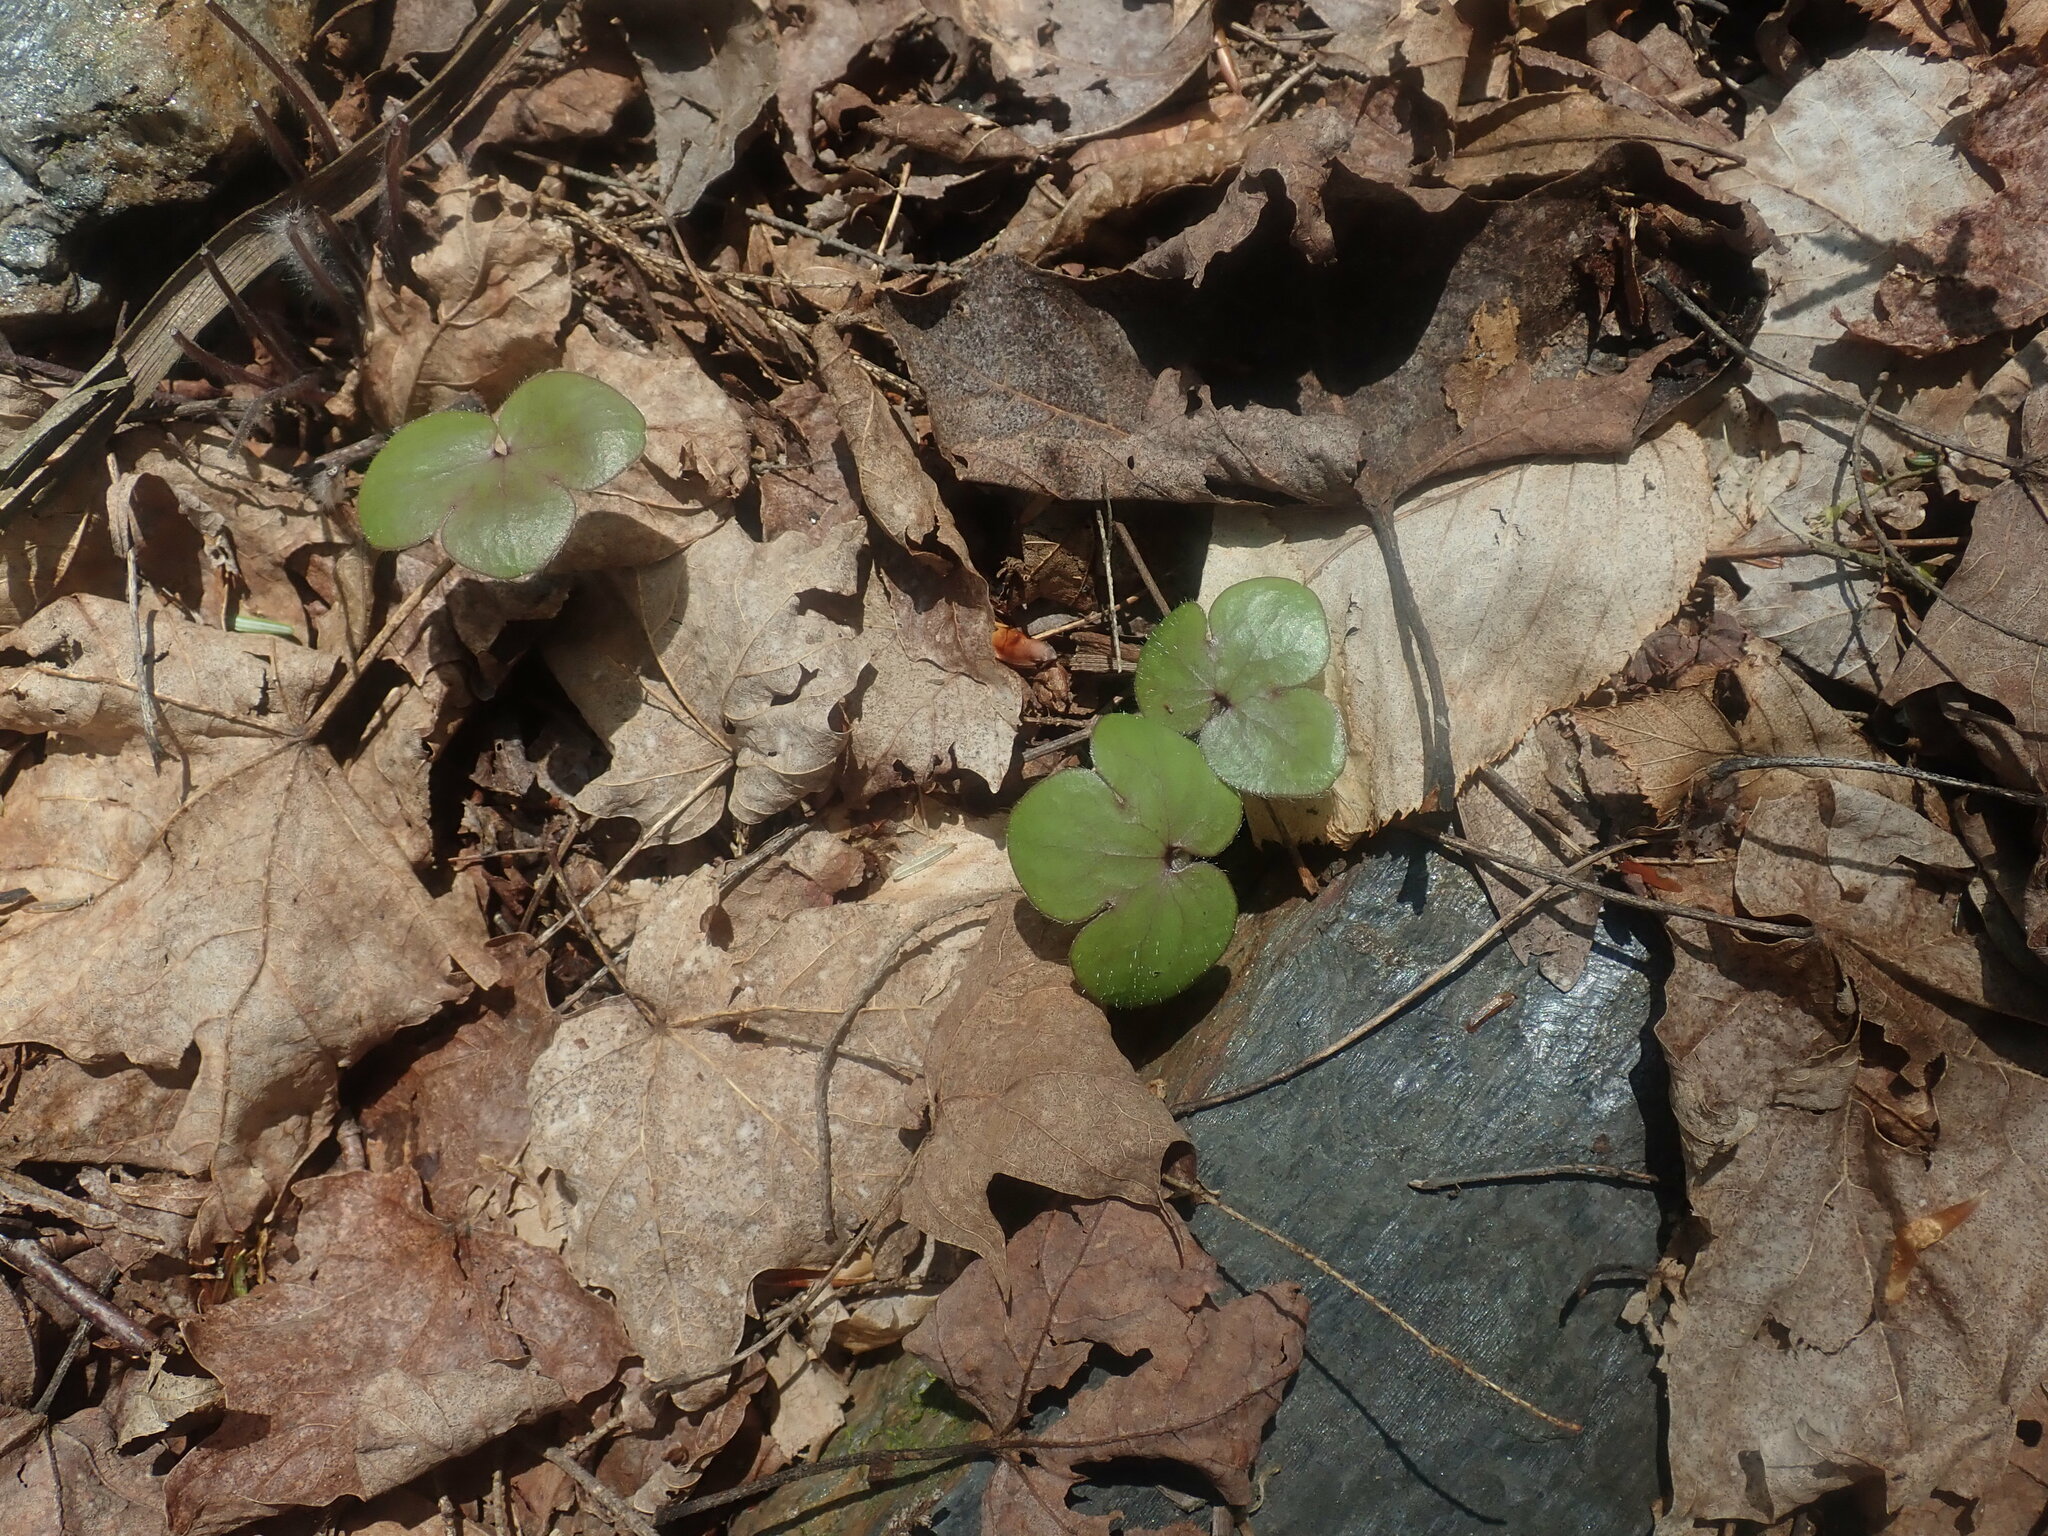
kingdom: Plantae
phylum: Tracheophyta
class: Magnoliopsida
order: Ranunculales
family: Ranunculaceae
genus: Hepatica
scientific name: Hepatica americana
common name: American hepatica
